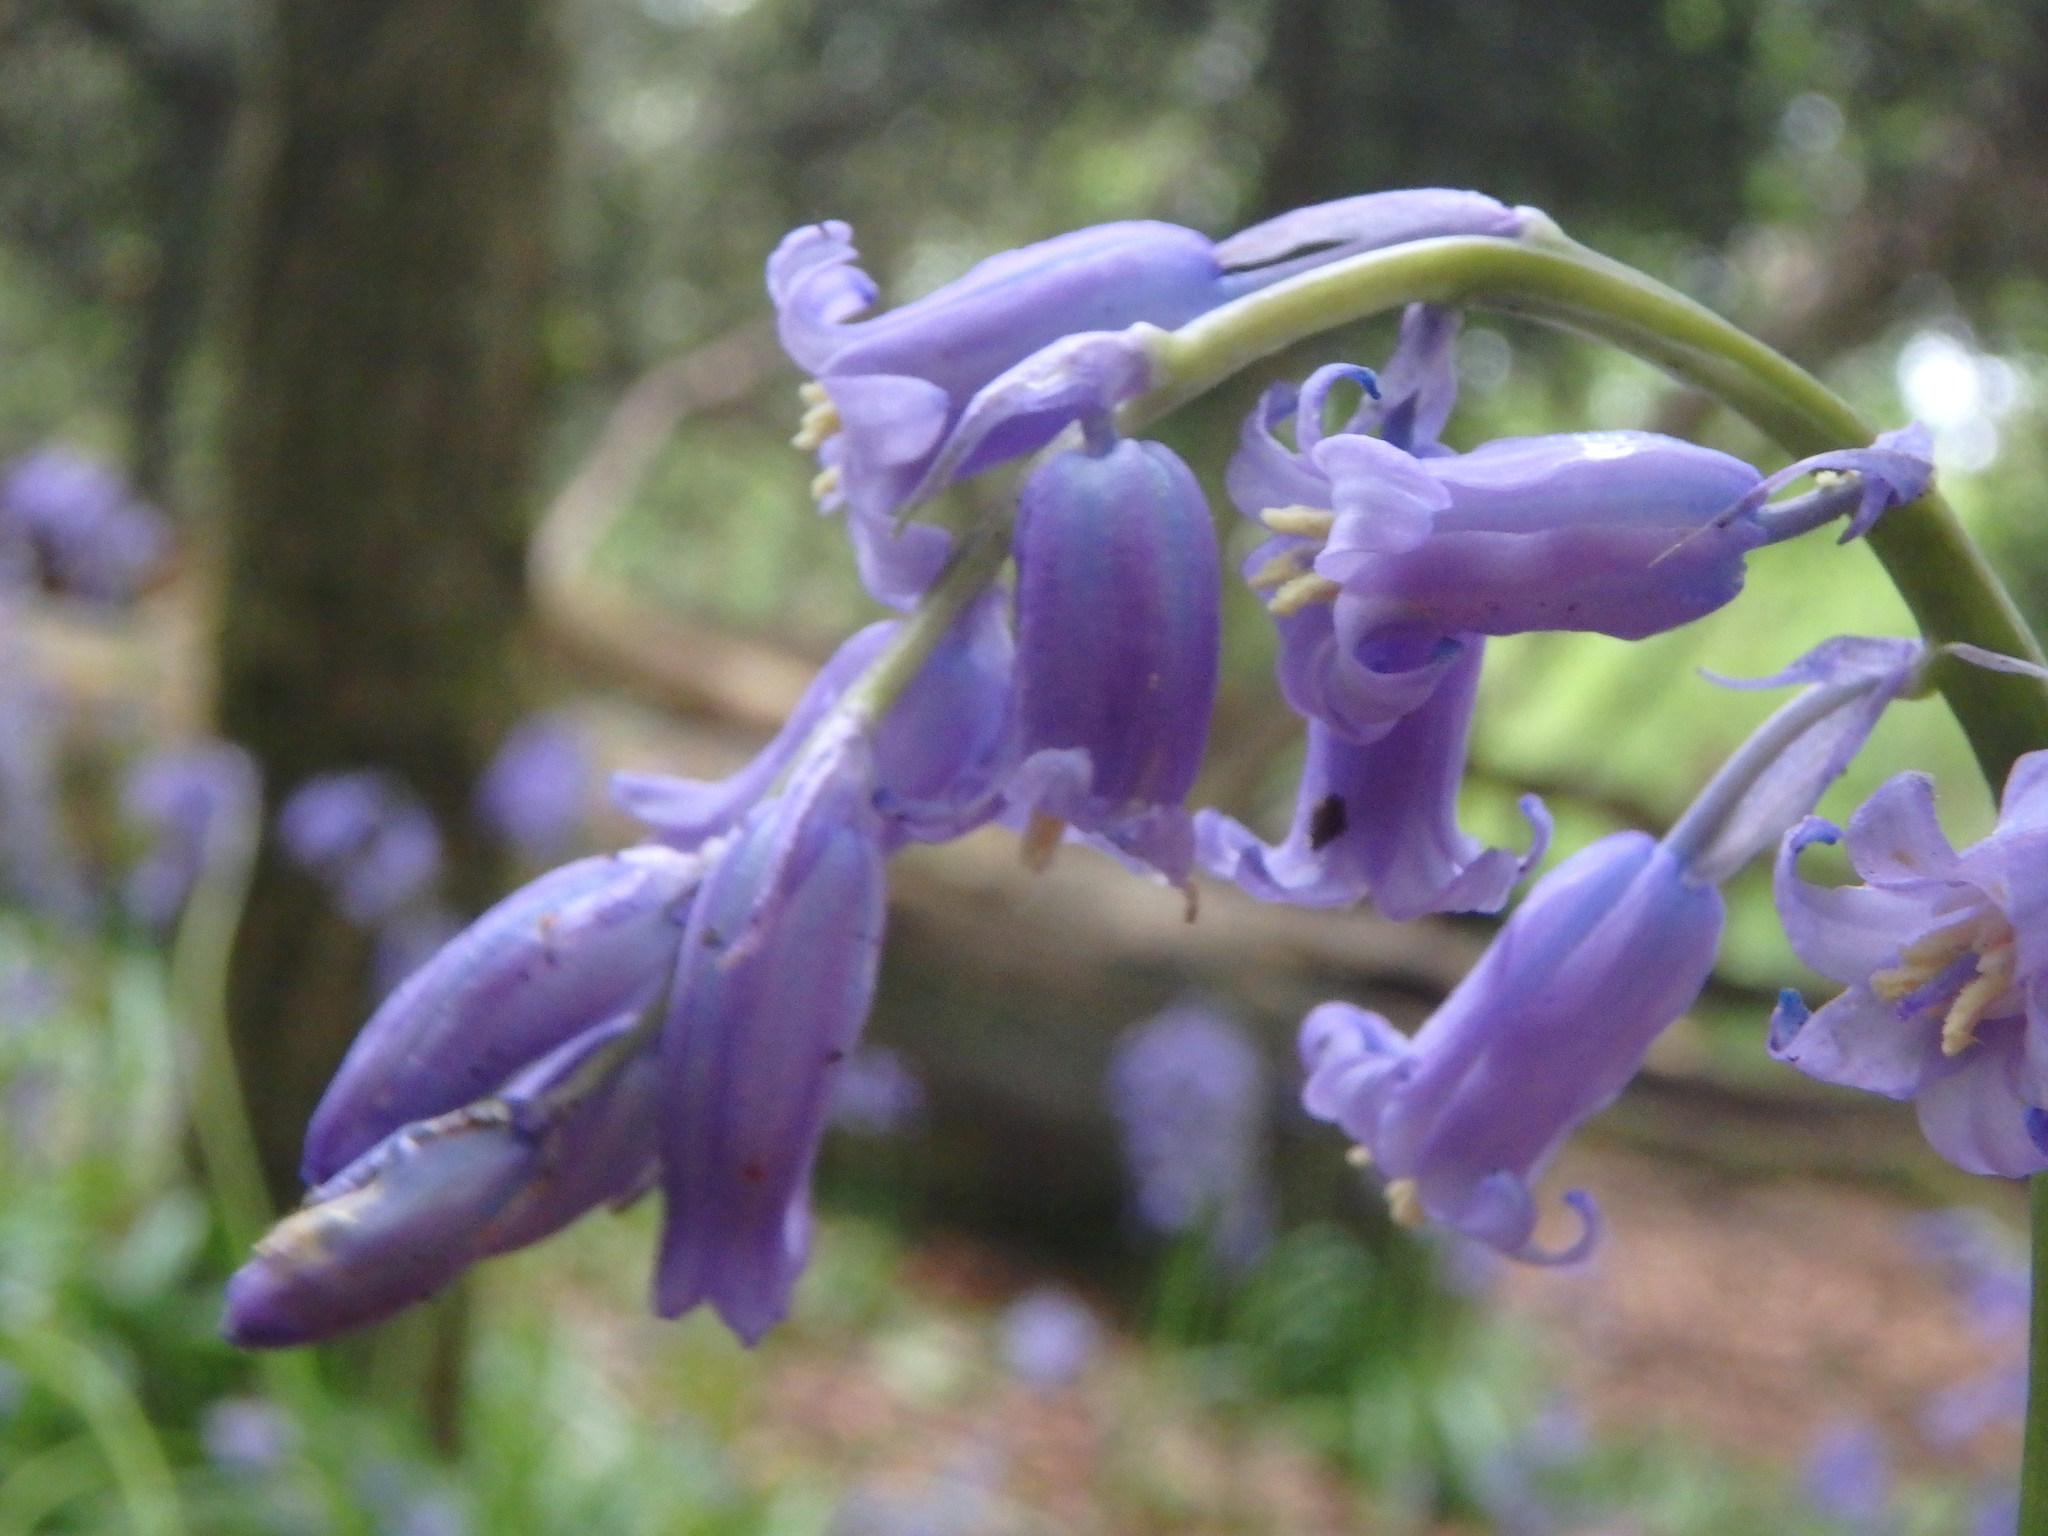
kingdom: Plantae
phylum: Tracheophyta
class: Liliopsida
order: Asparagales
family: Asparagaceae
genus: Hyacinthoides
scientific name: Hyacinthoides non-scripta
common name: Bluebell
